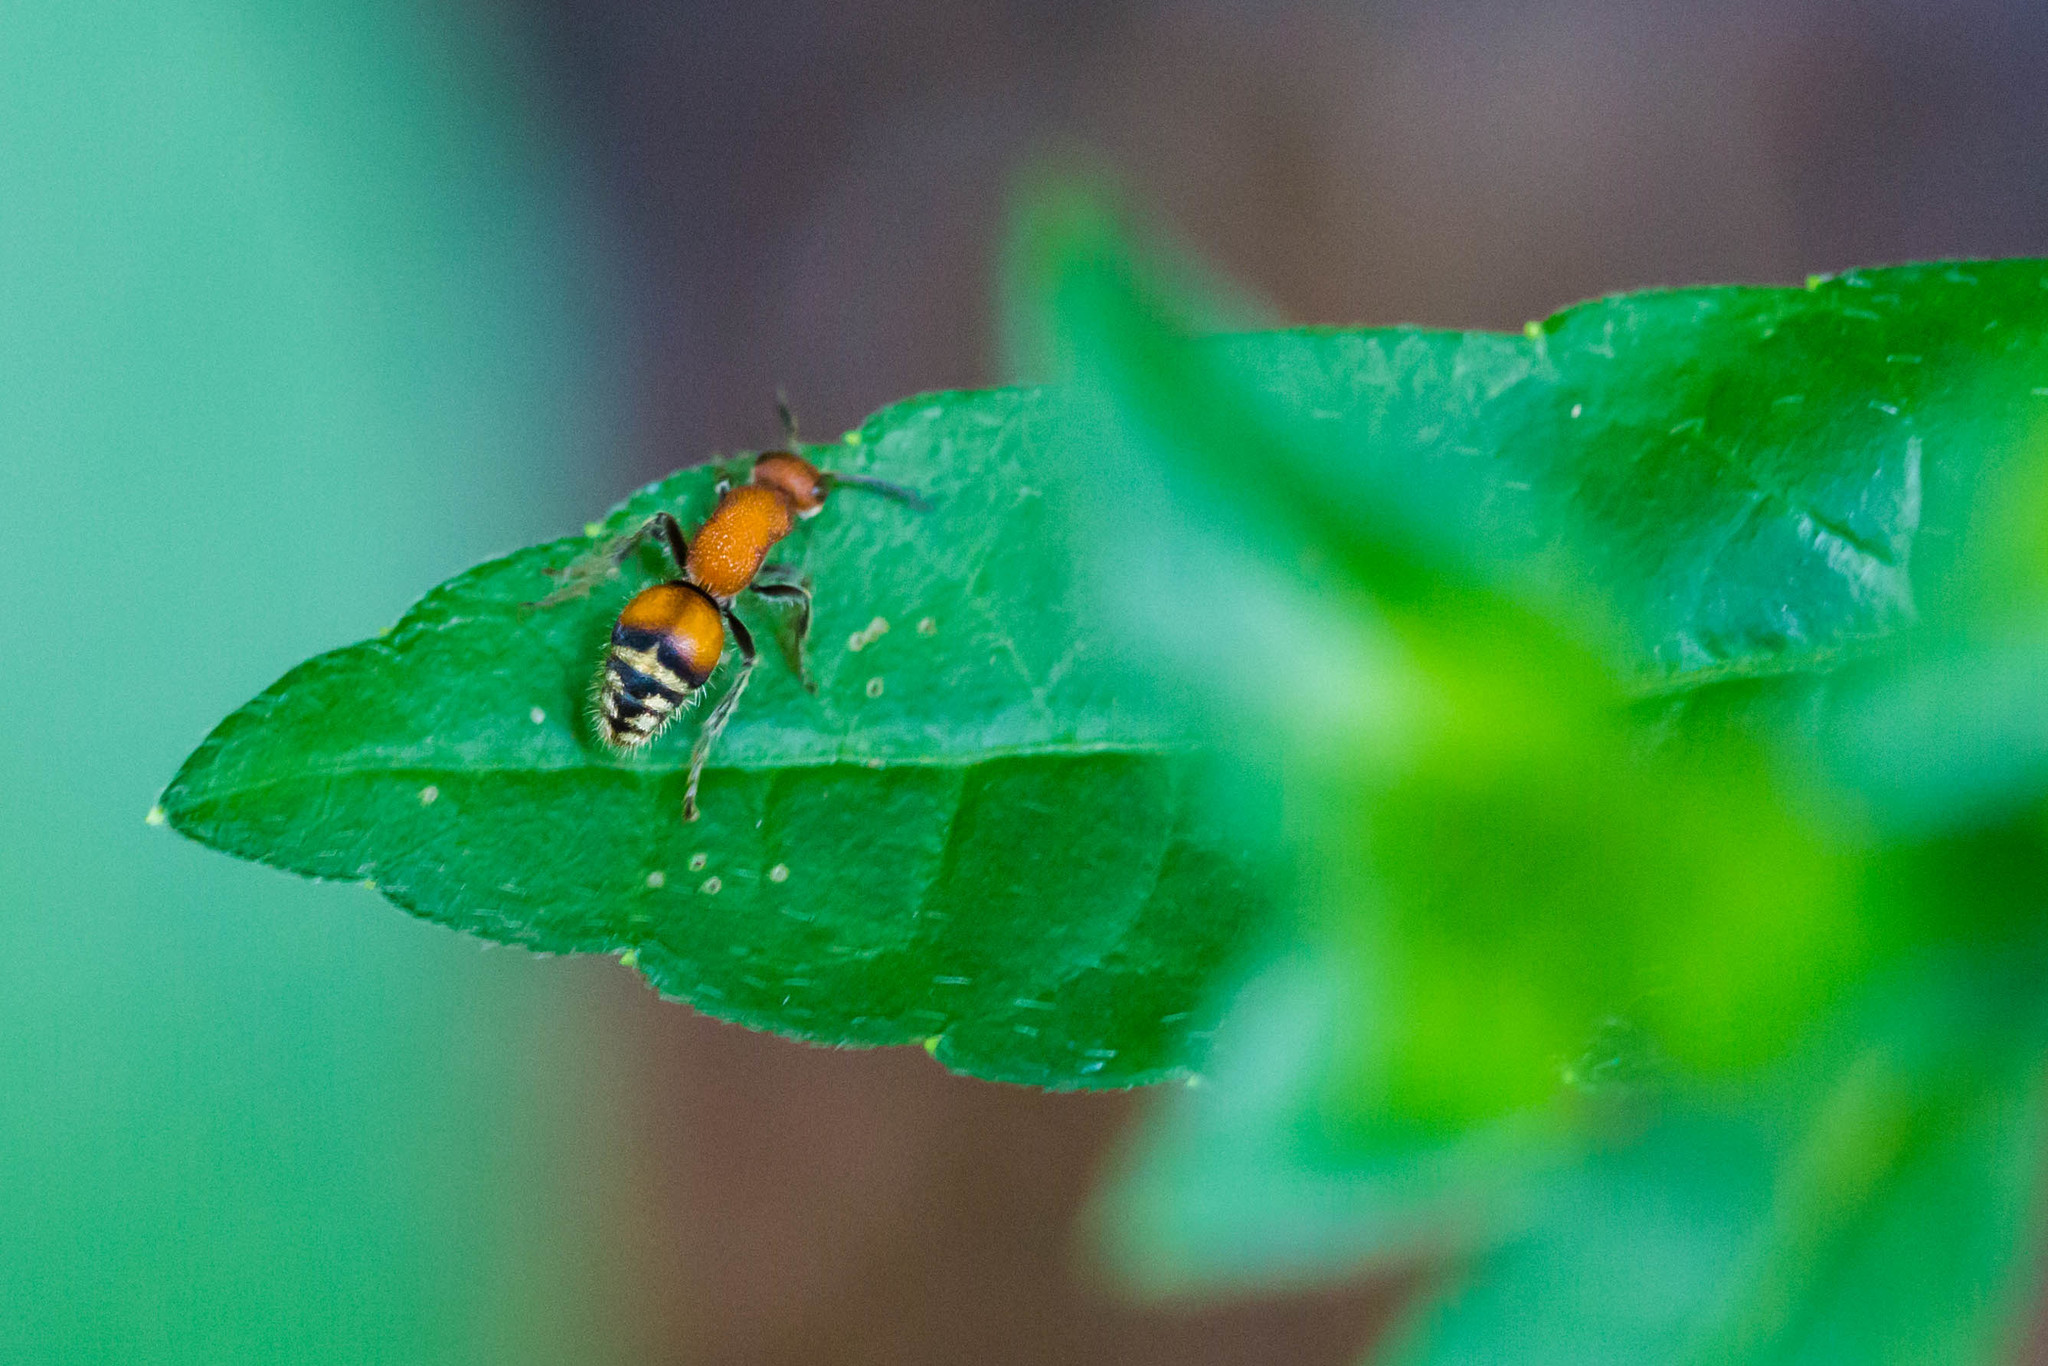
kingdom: Animalia
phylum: Arthropoda
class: Insecta
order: Hymenoptera
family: Mutillidae
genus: Timulla
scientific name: Timulla
